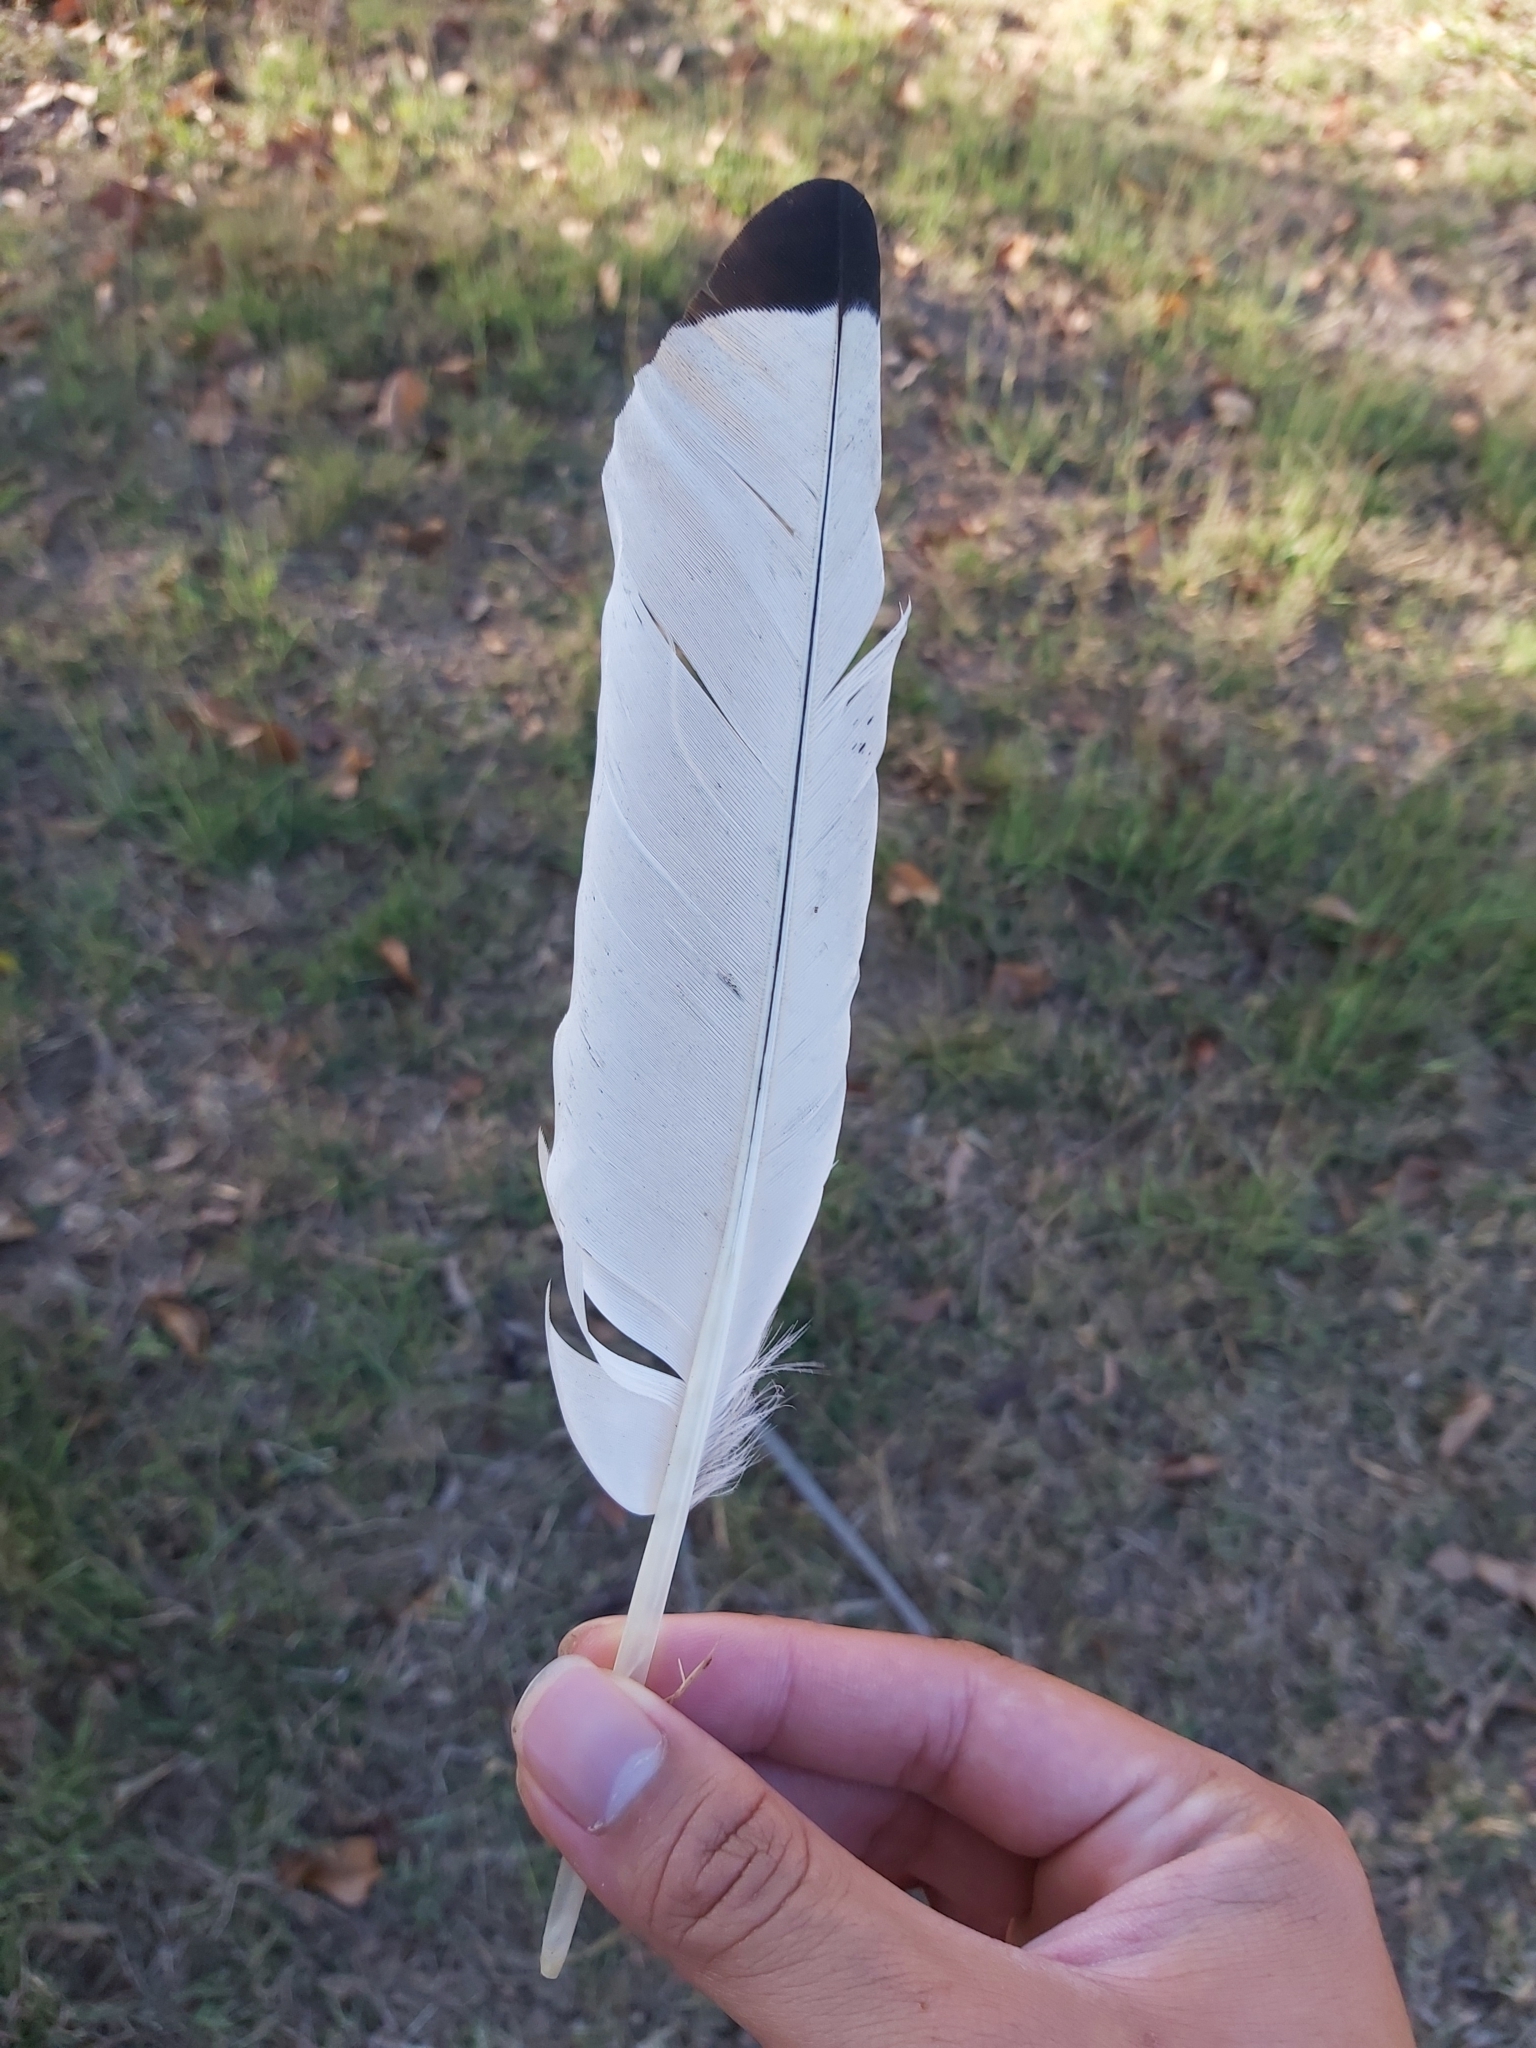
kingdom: Animalia
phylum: Chordata
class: Aves
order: Pelecaniformes
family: Threskiornithidae
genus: Threskiornis
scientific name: Threskiornis molucca
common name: Australian white ibis
